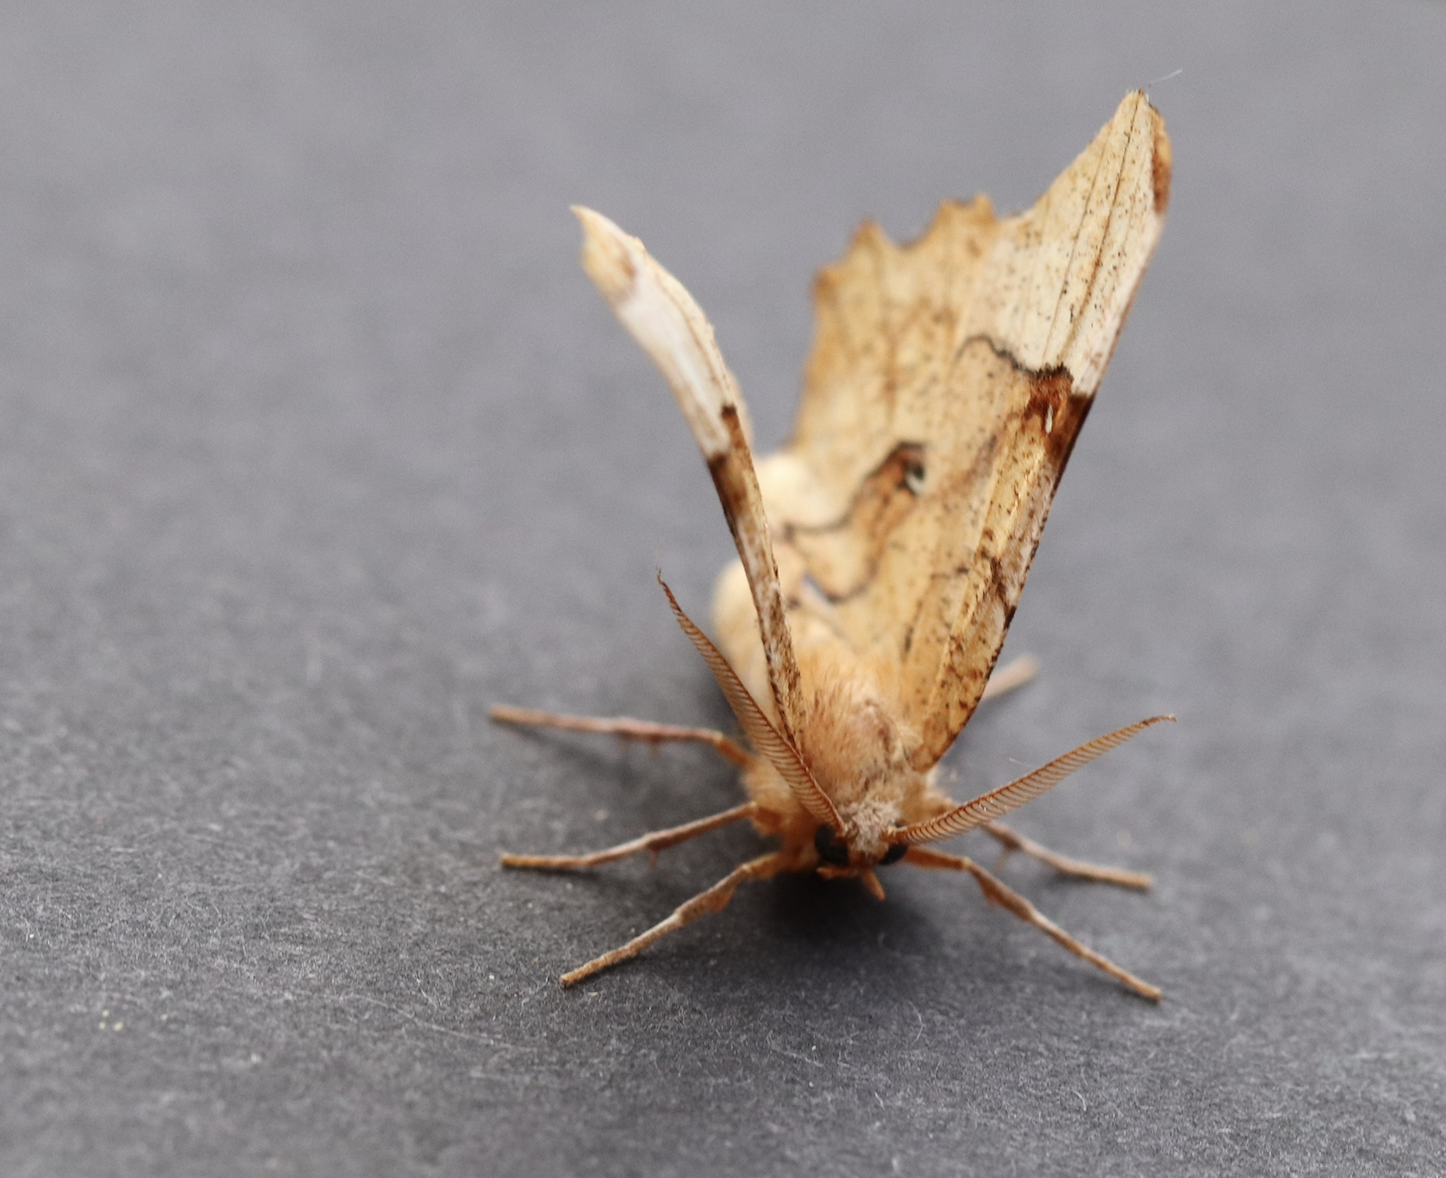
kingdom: Animalia
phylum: Arthropoda
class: Insecta
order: Lepidoptera
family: Geometridae
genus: Selenia
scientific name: Selenia lunularia
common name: Lunar thorn
